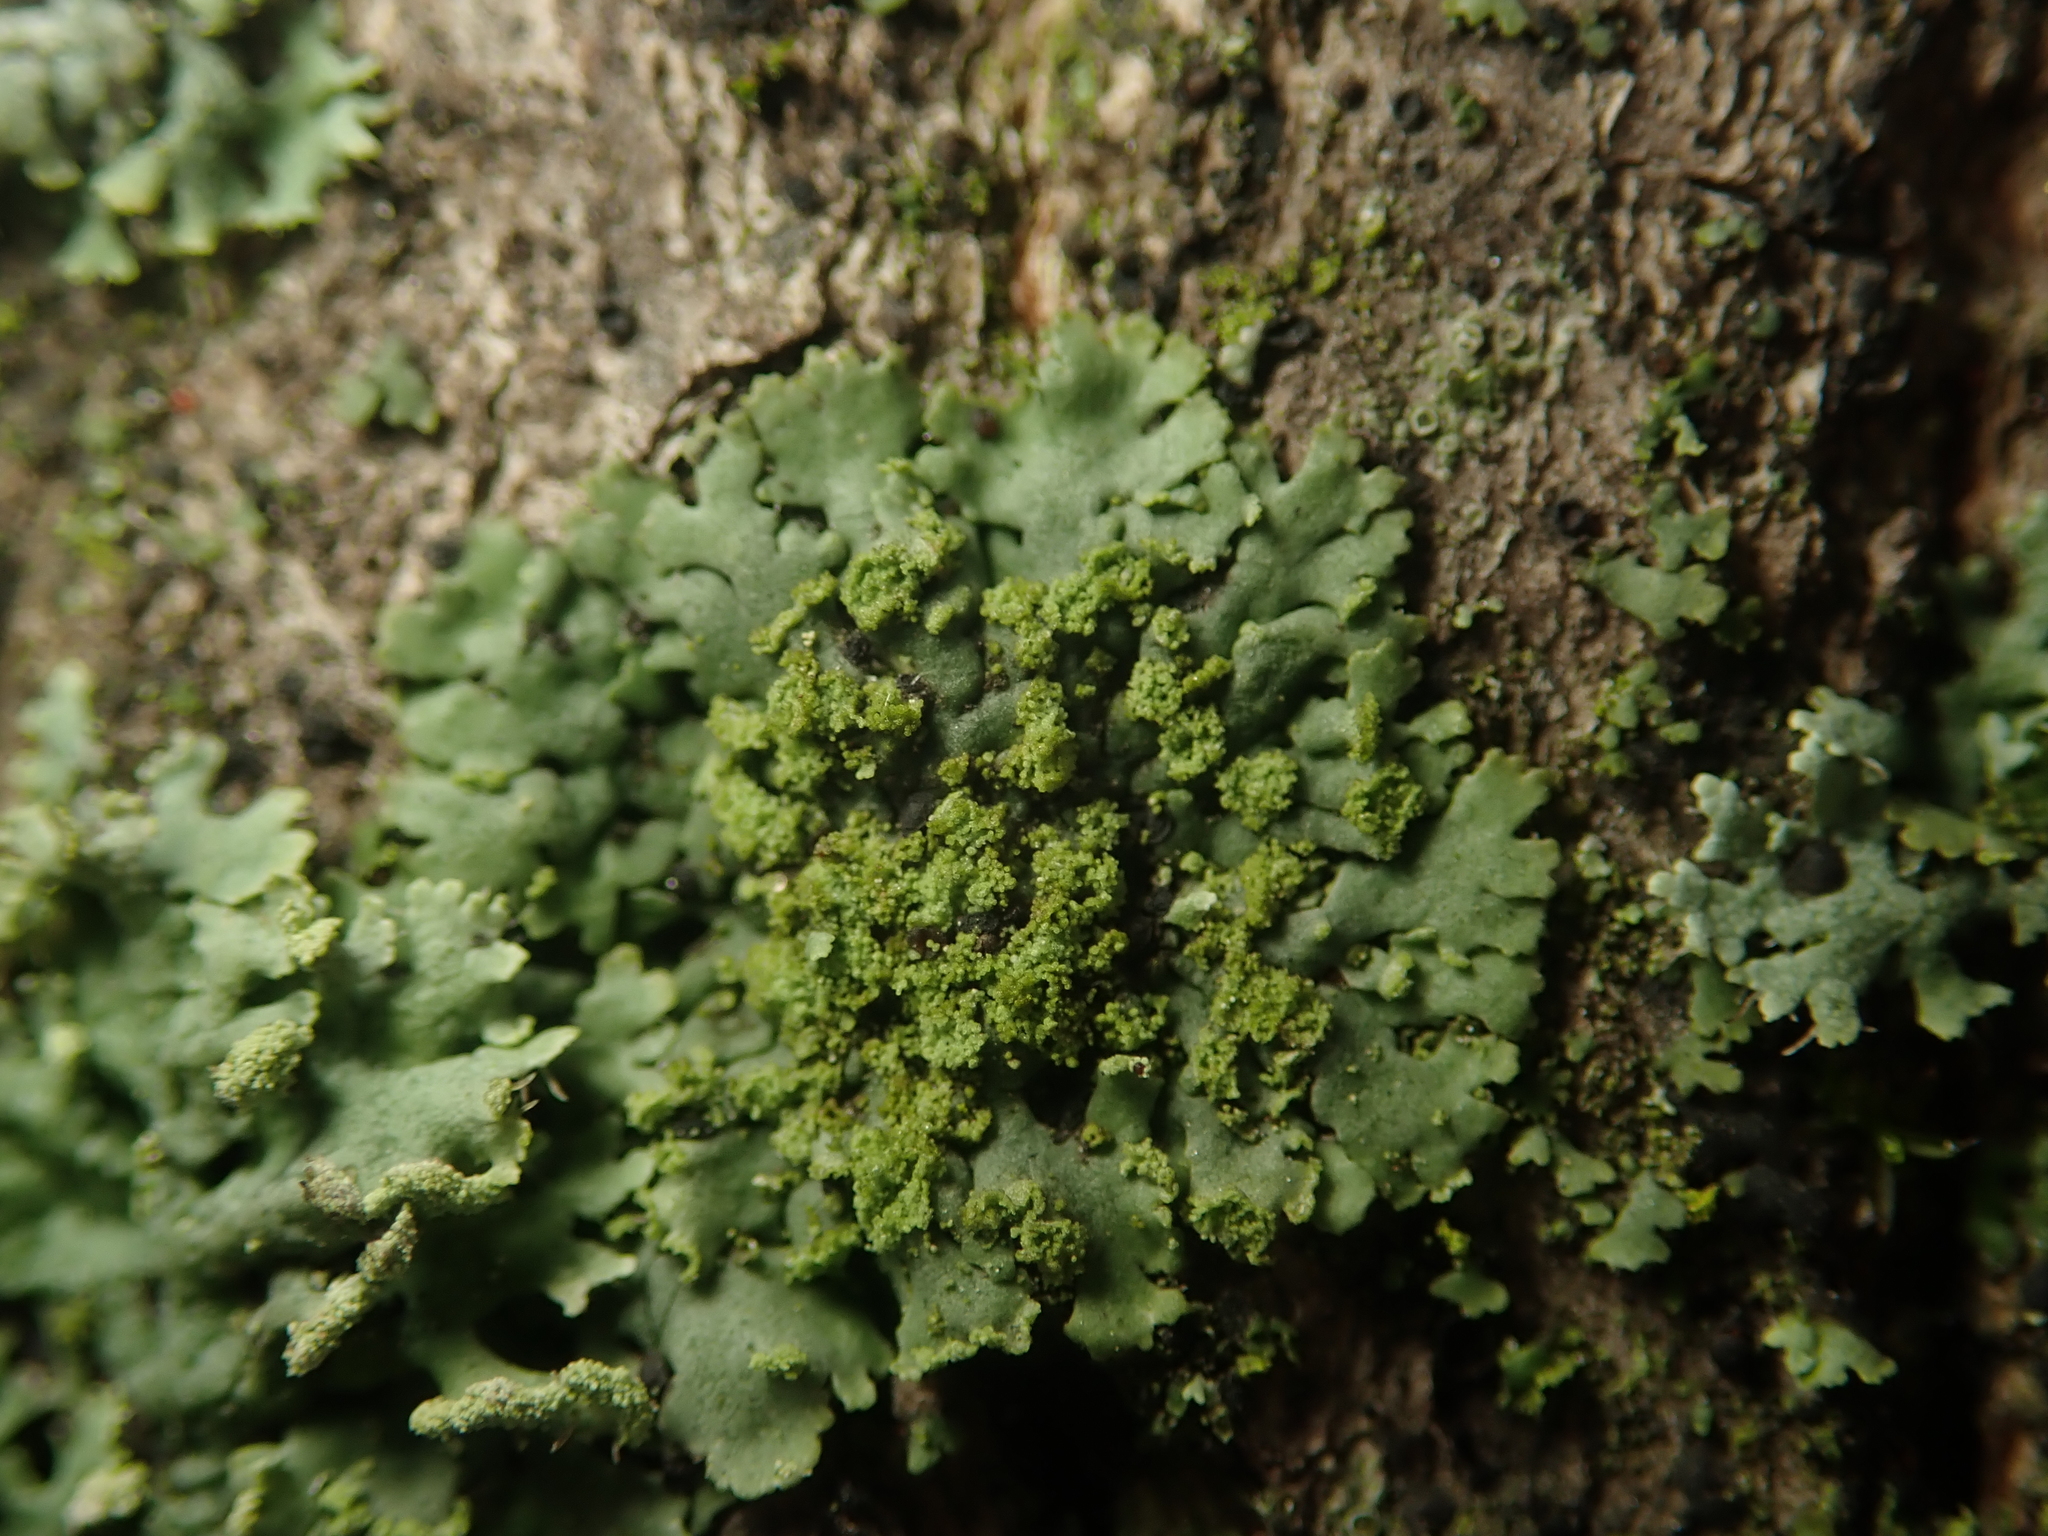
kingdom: Fungi
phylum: Ascomycota
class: Lecanoromycetes
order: Caliciales
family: Physciaceae
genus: Phaeophyscia
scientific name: Phaeophyscia orbicularis
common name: Mealy shadow lichen
